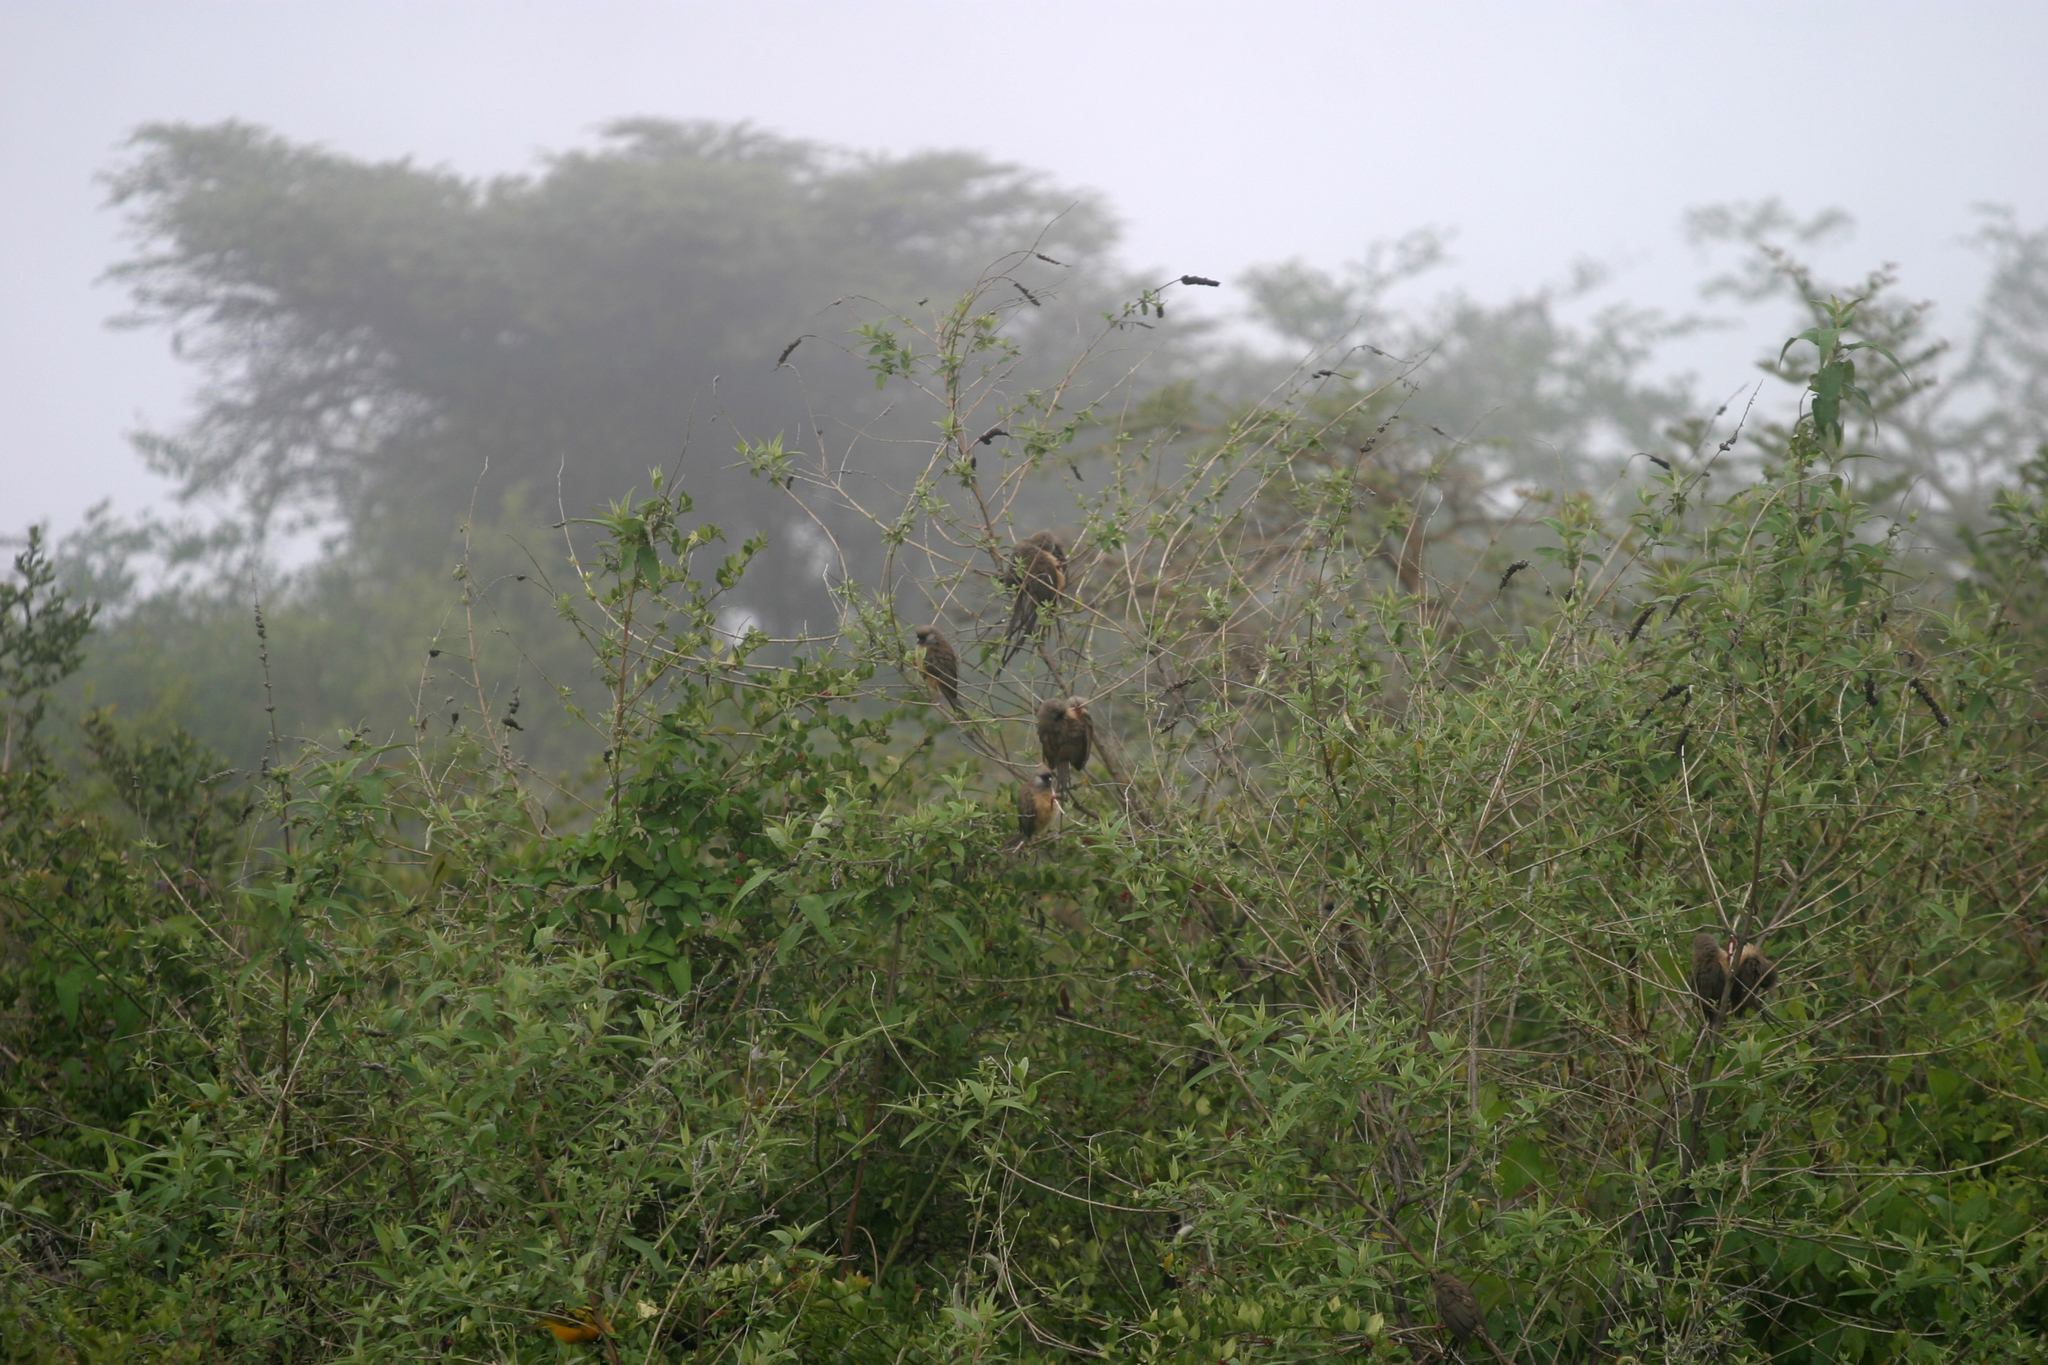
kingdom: Animalia
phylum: Chordata
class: Aves
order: Coliiformes
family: Coliidae
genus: Colius
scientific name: Colius striatus
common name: Speckled mousebird
